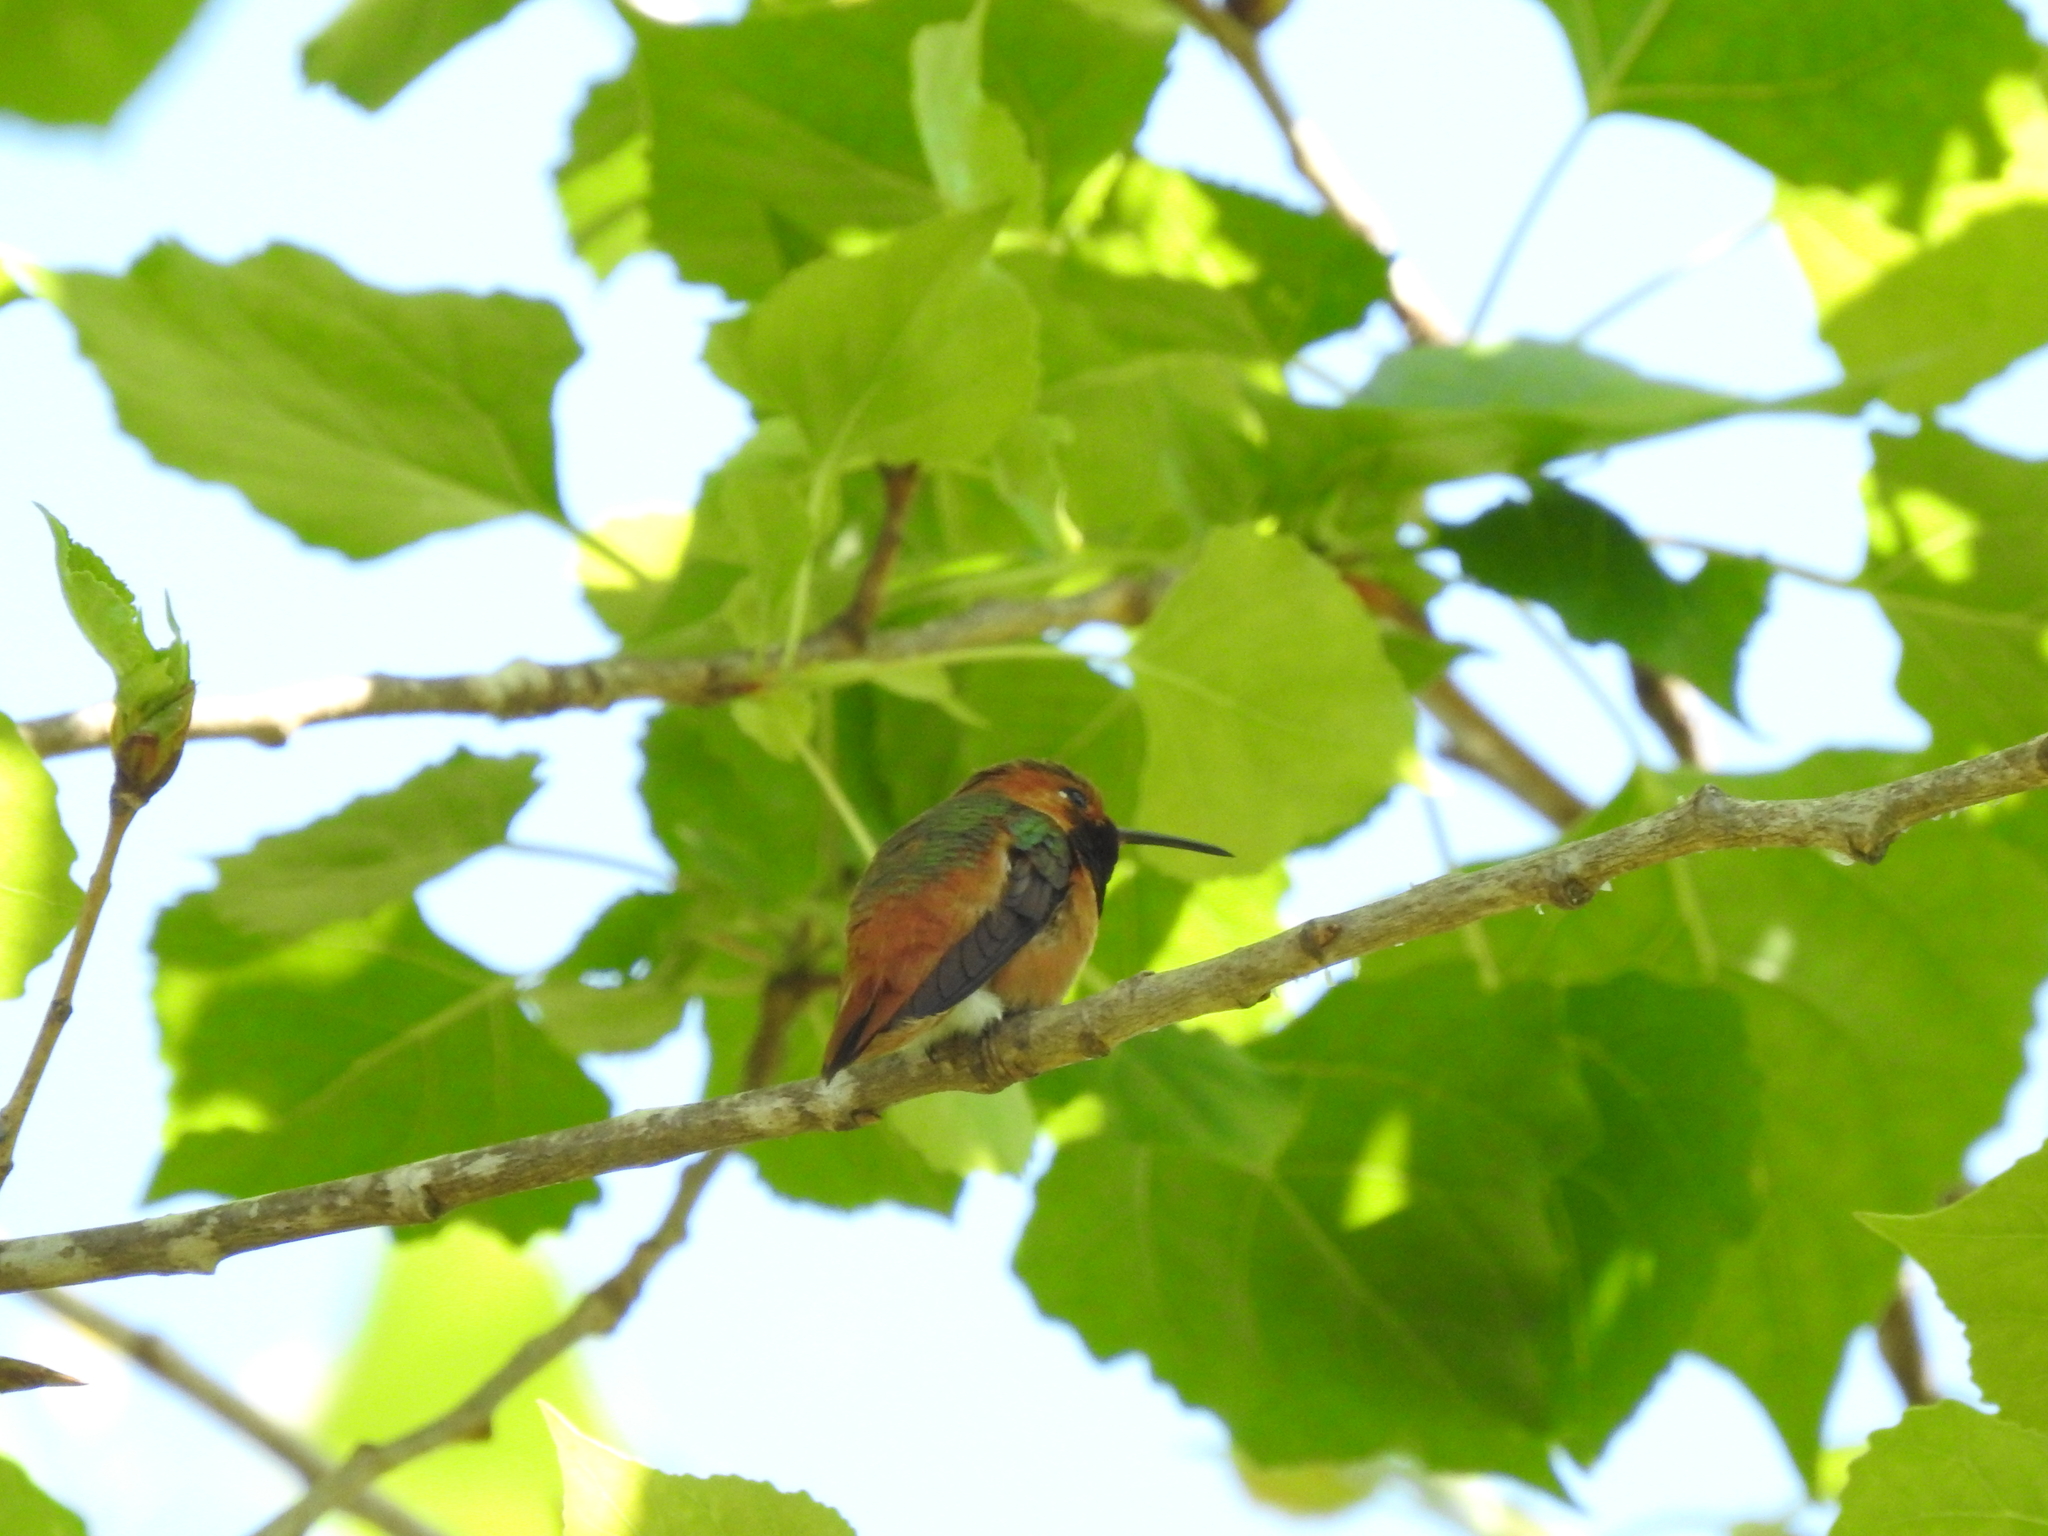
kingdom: Animalia
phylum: Chordata
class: Aves
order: Apodiformes
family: Trochilidae
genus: Selasphorus
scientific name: Selasphorus sasin
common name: Allen's hummingbird
